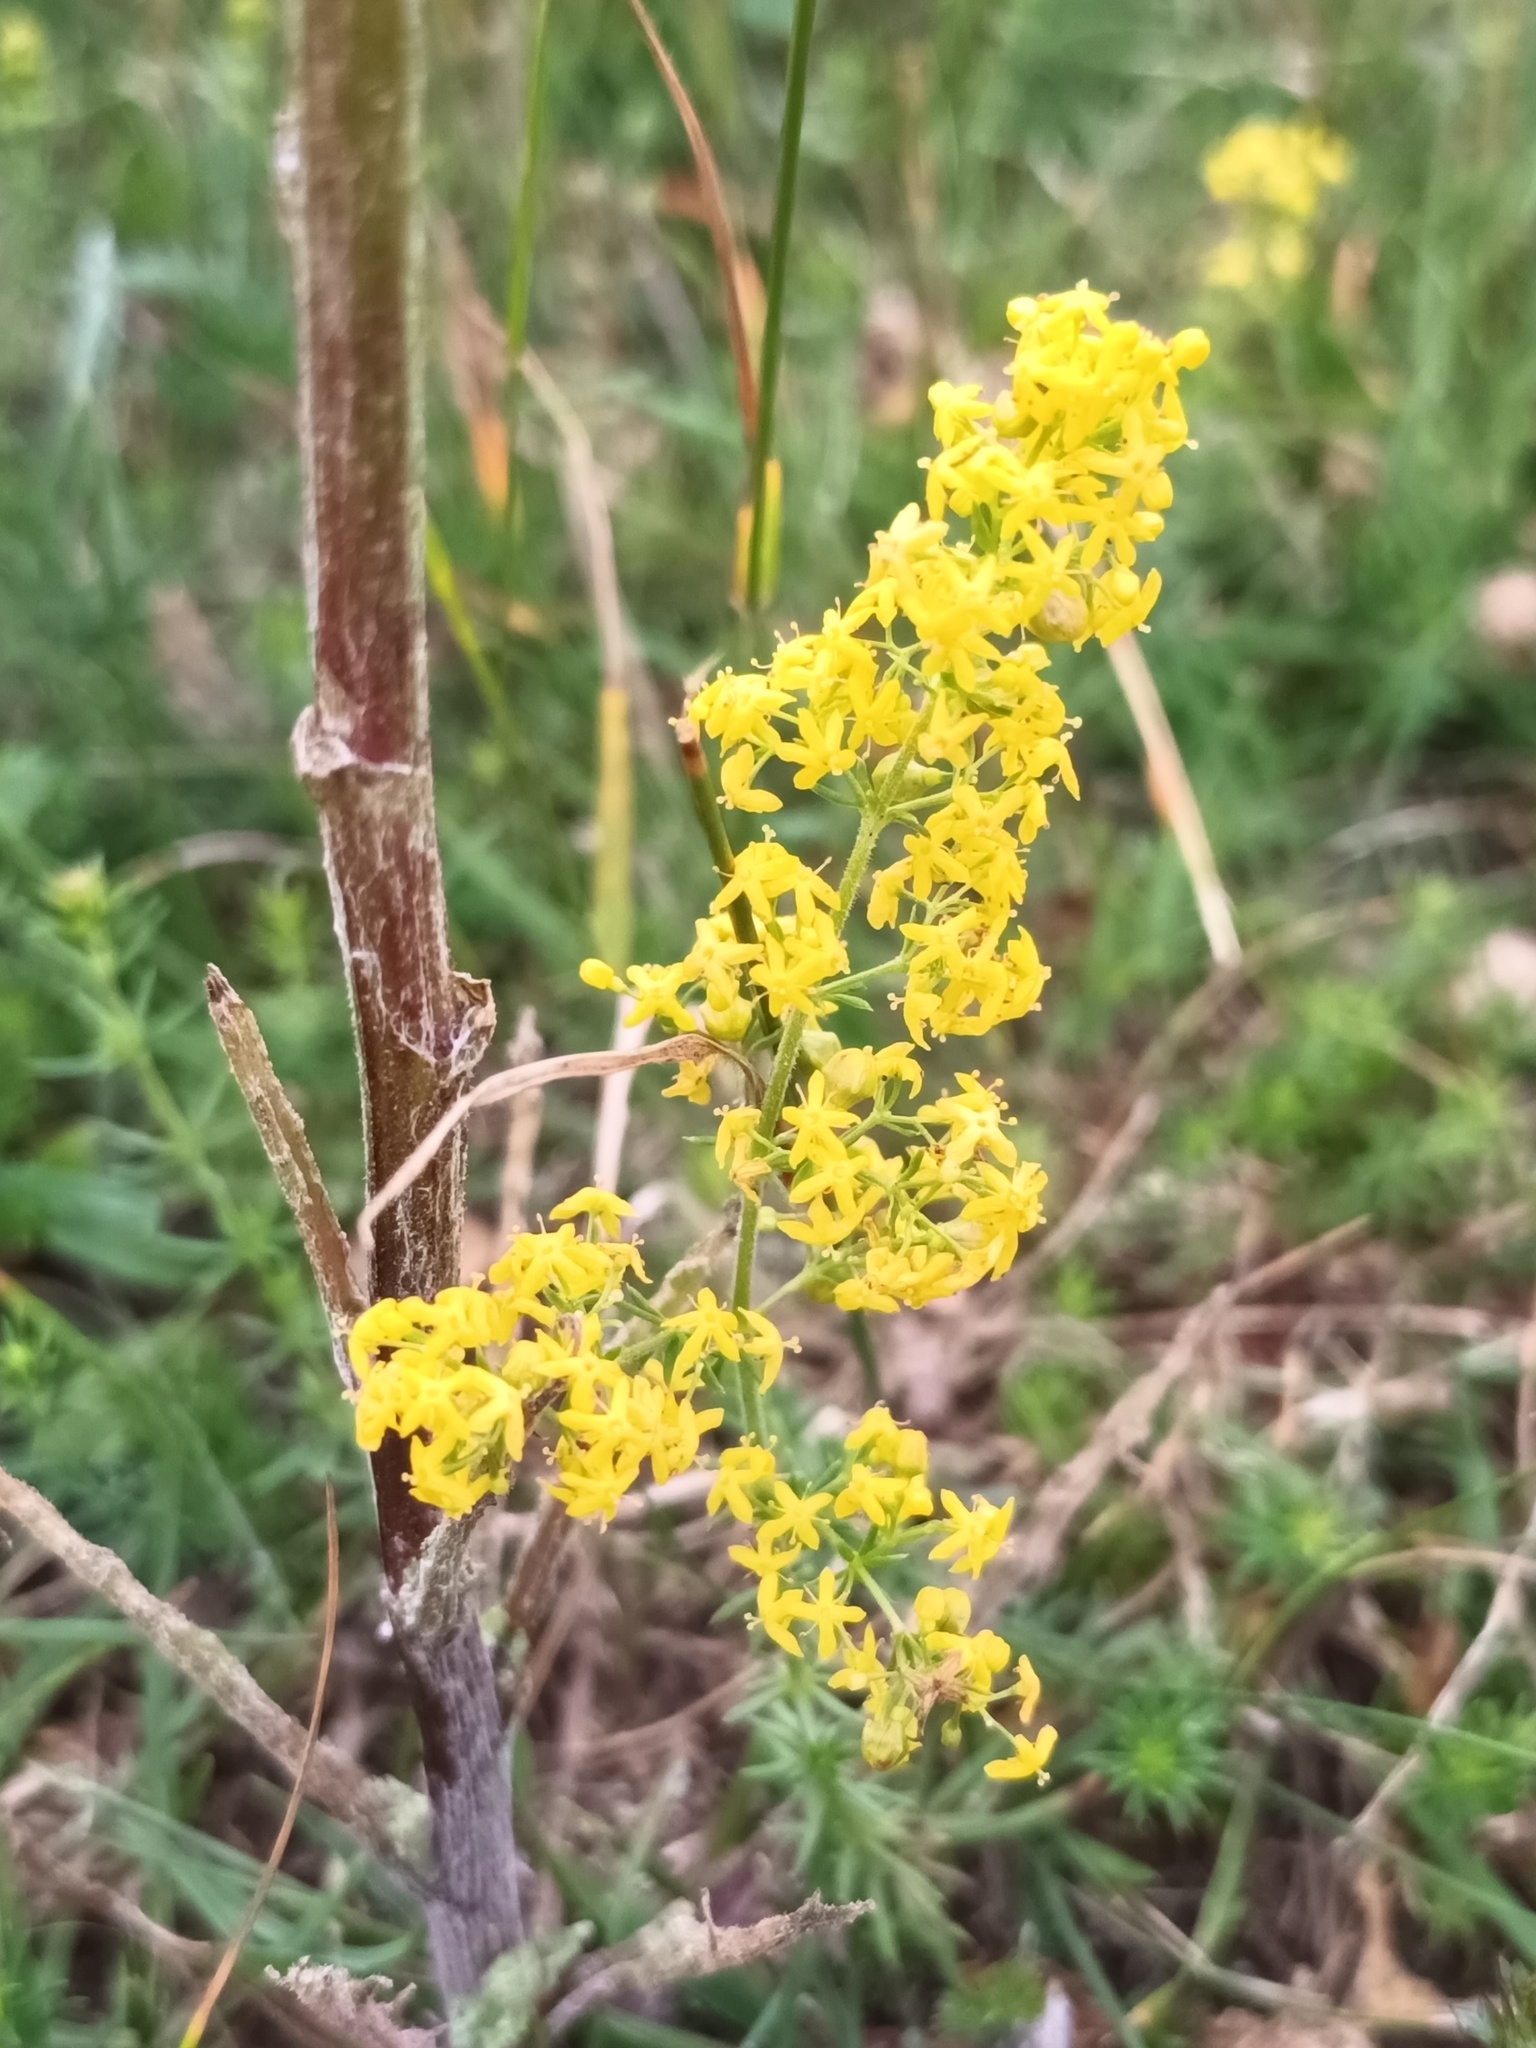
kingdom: Plantae
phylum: Tracheophyta
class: Magnoliopsida
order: Gentianales
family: Rubiaceae
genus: Galium
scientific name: Galium verum
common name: Lady's bedstraw
